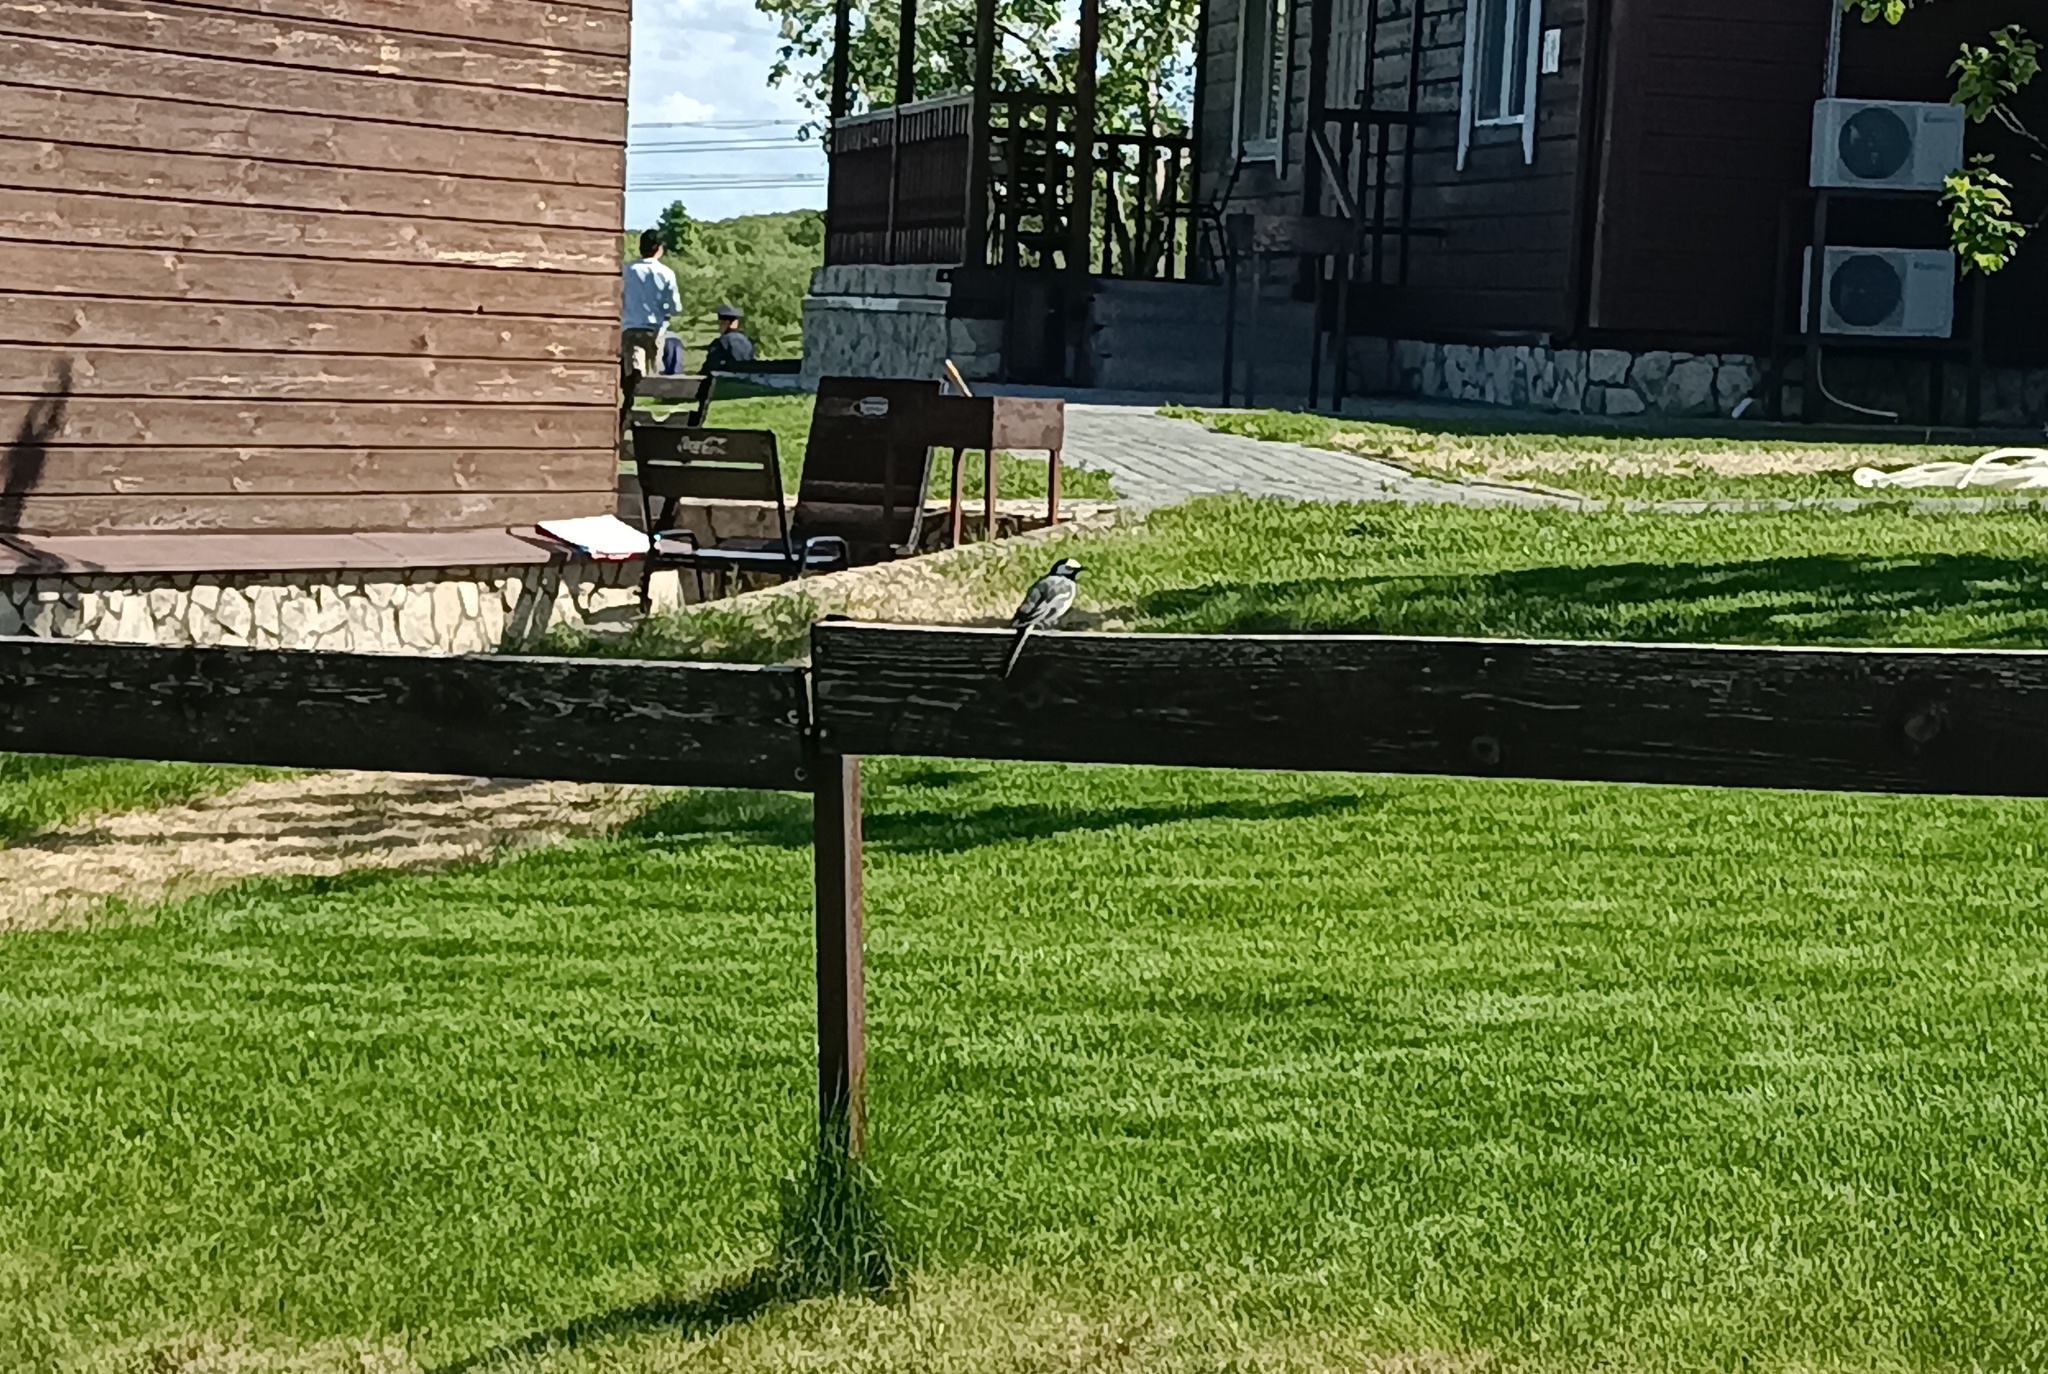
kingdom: Animalia
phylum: Chordata
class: Aves
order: Passeriformes
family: Motacillidae
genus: Motacilla
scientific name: Motacilla alba
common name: White wagtail
